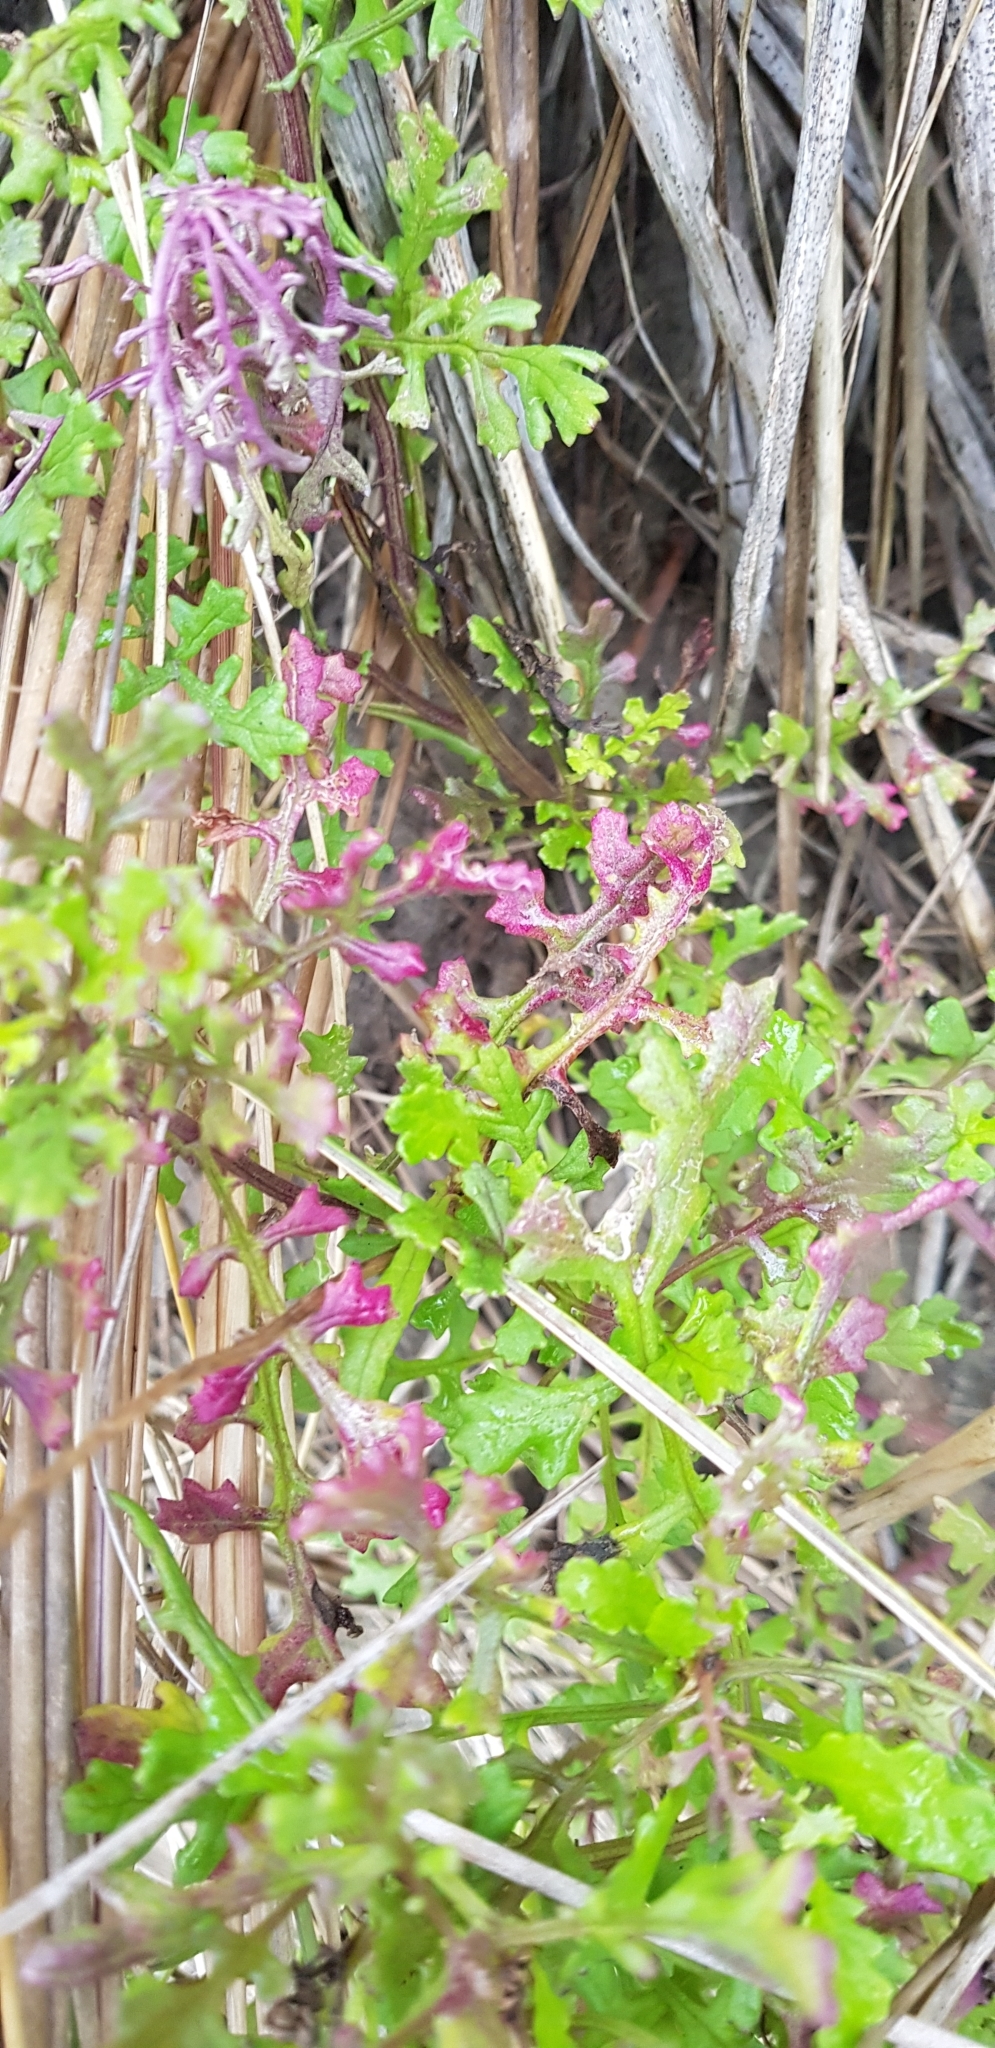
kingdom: Plantae
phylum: Tracheophyta
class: Magnoliopsida
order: Asterales
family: Asteraceae
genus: Senecio
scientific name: Senecio elegans
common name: Purple groundsel
